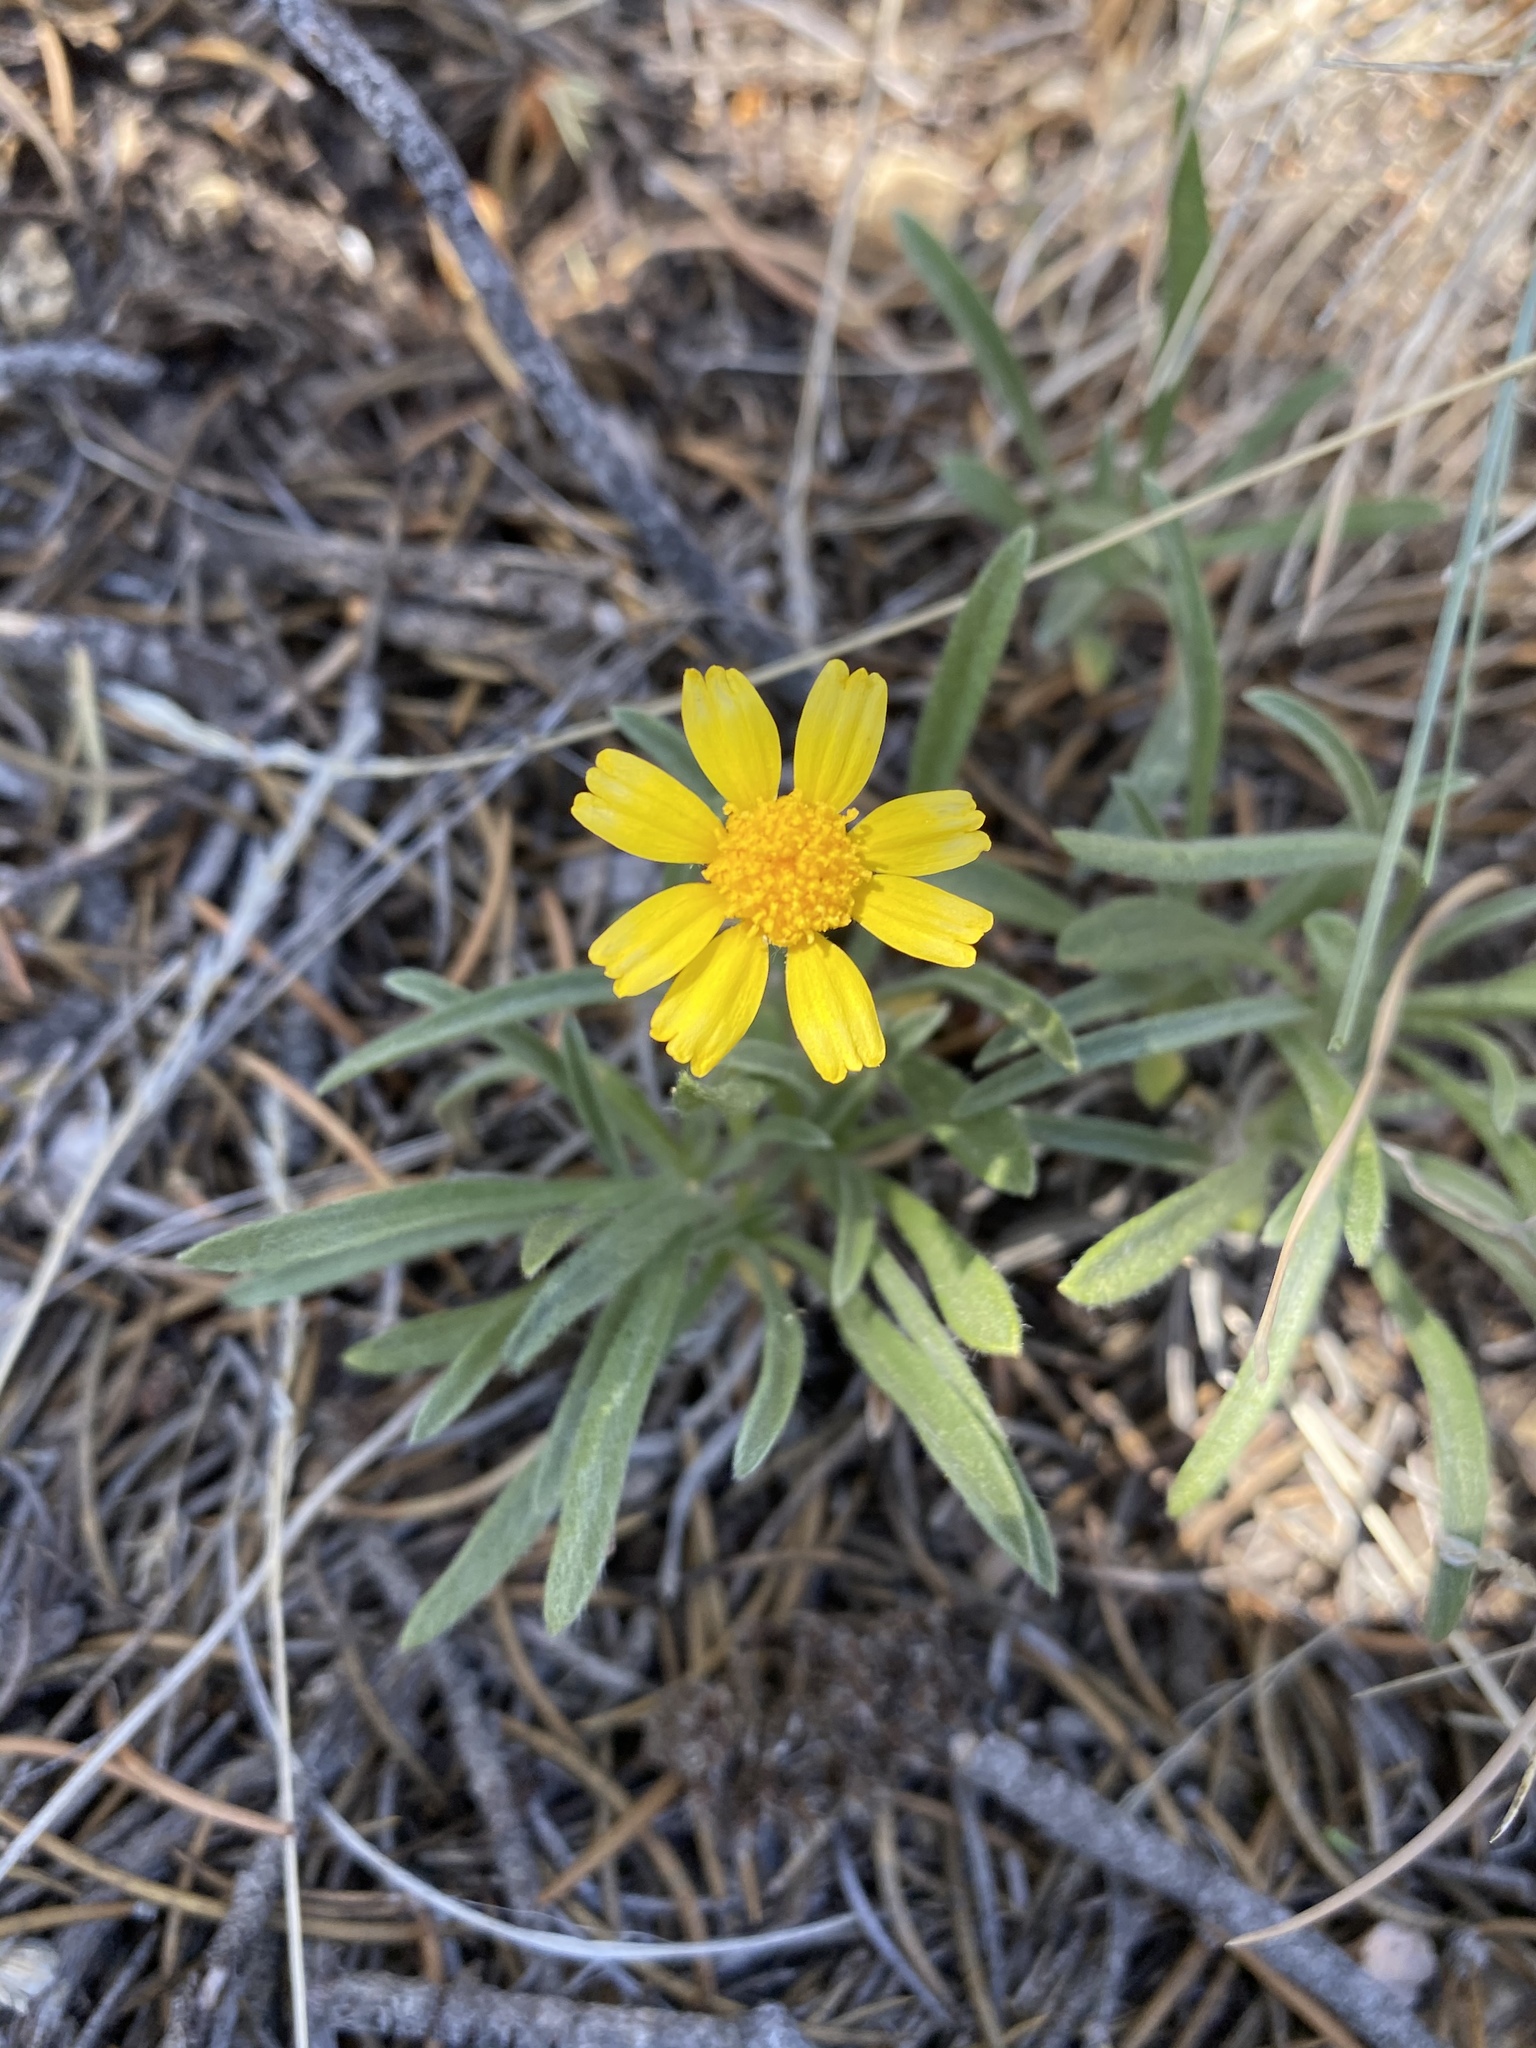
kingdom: Plantae
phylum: Tracheophyta
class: Magnoliopsida
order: Asterales
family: Asteraceae
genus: Tetraneuris
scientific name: Tetraneuris acaulis
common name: Butte marigold
